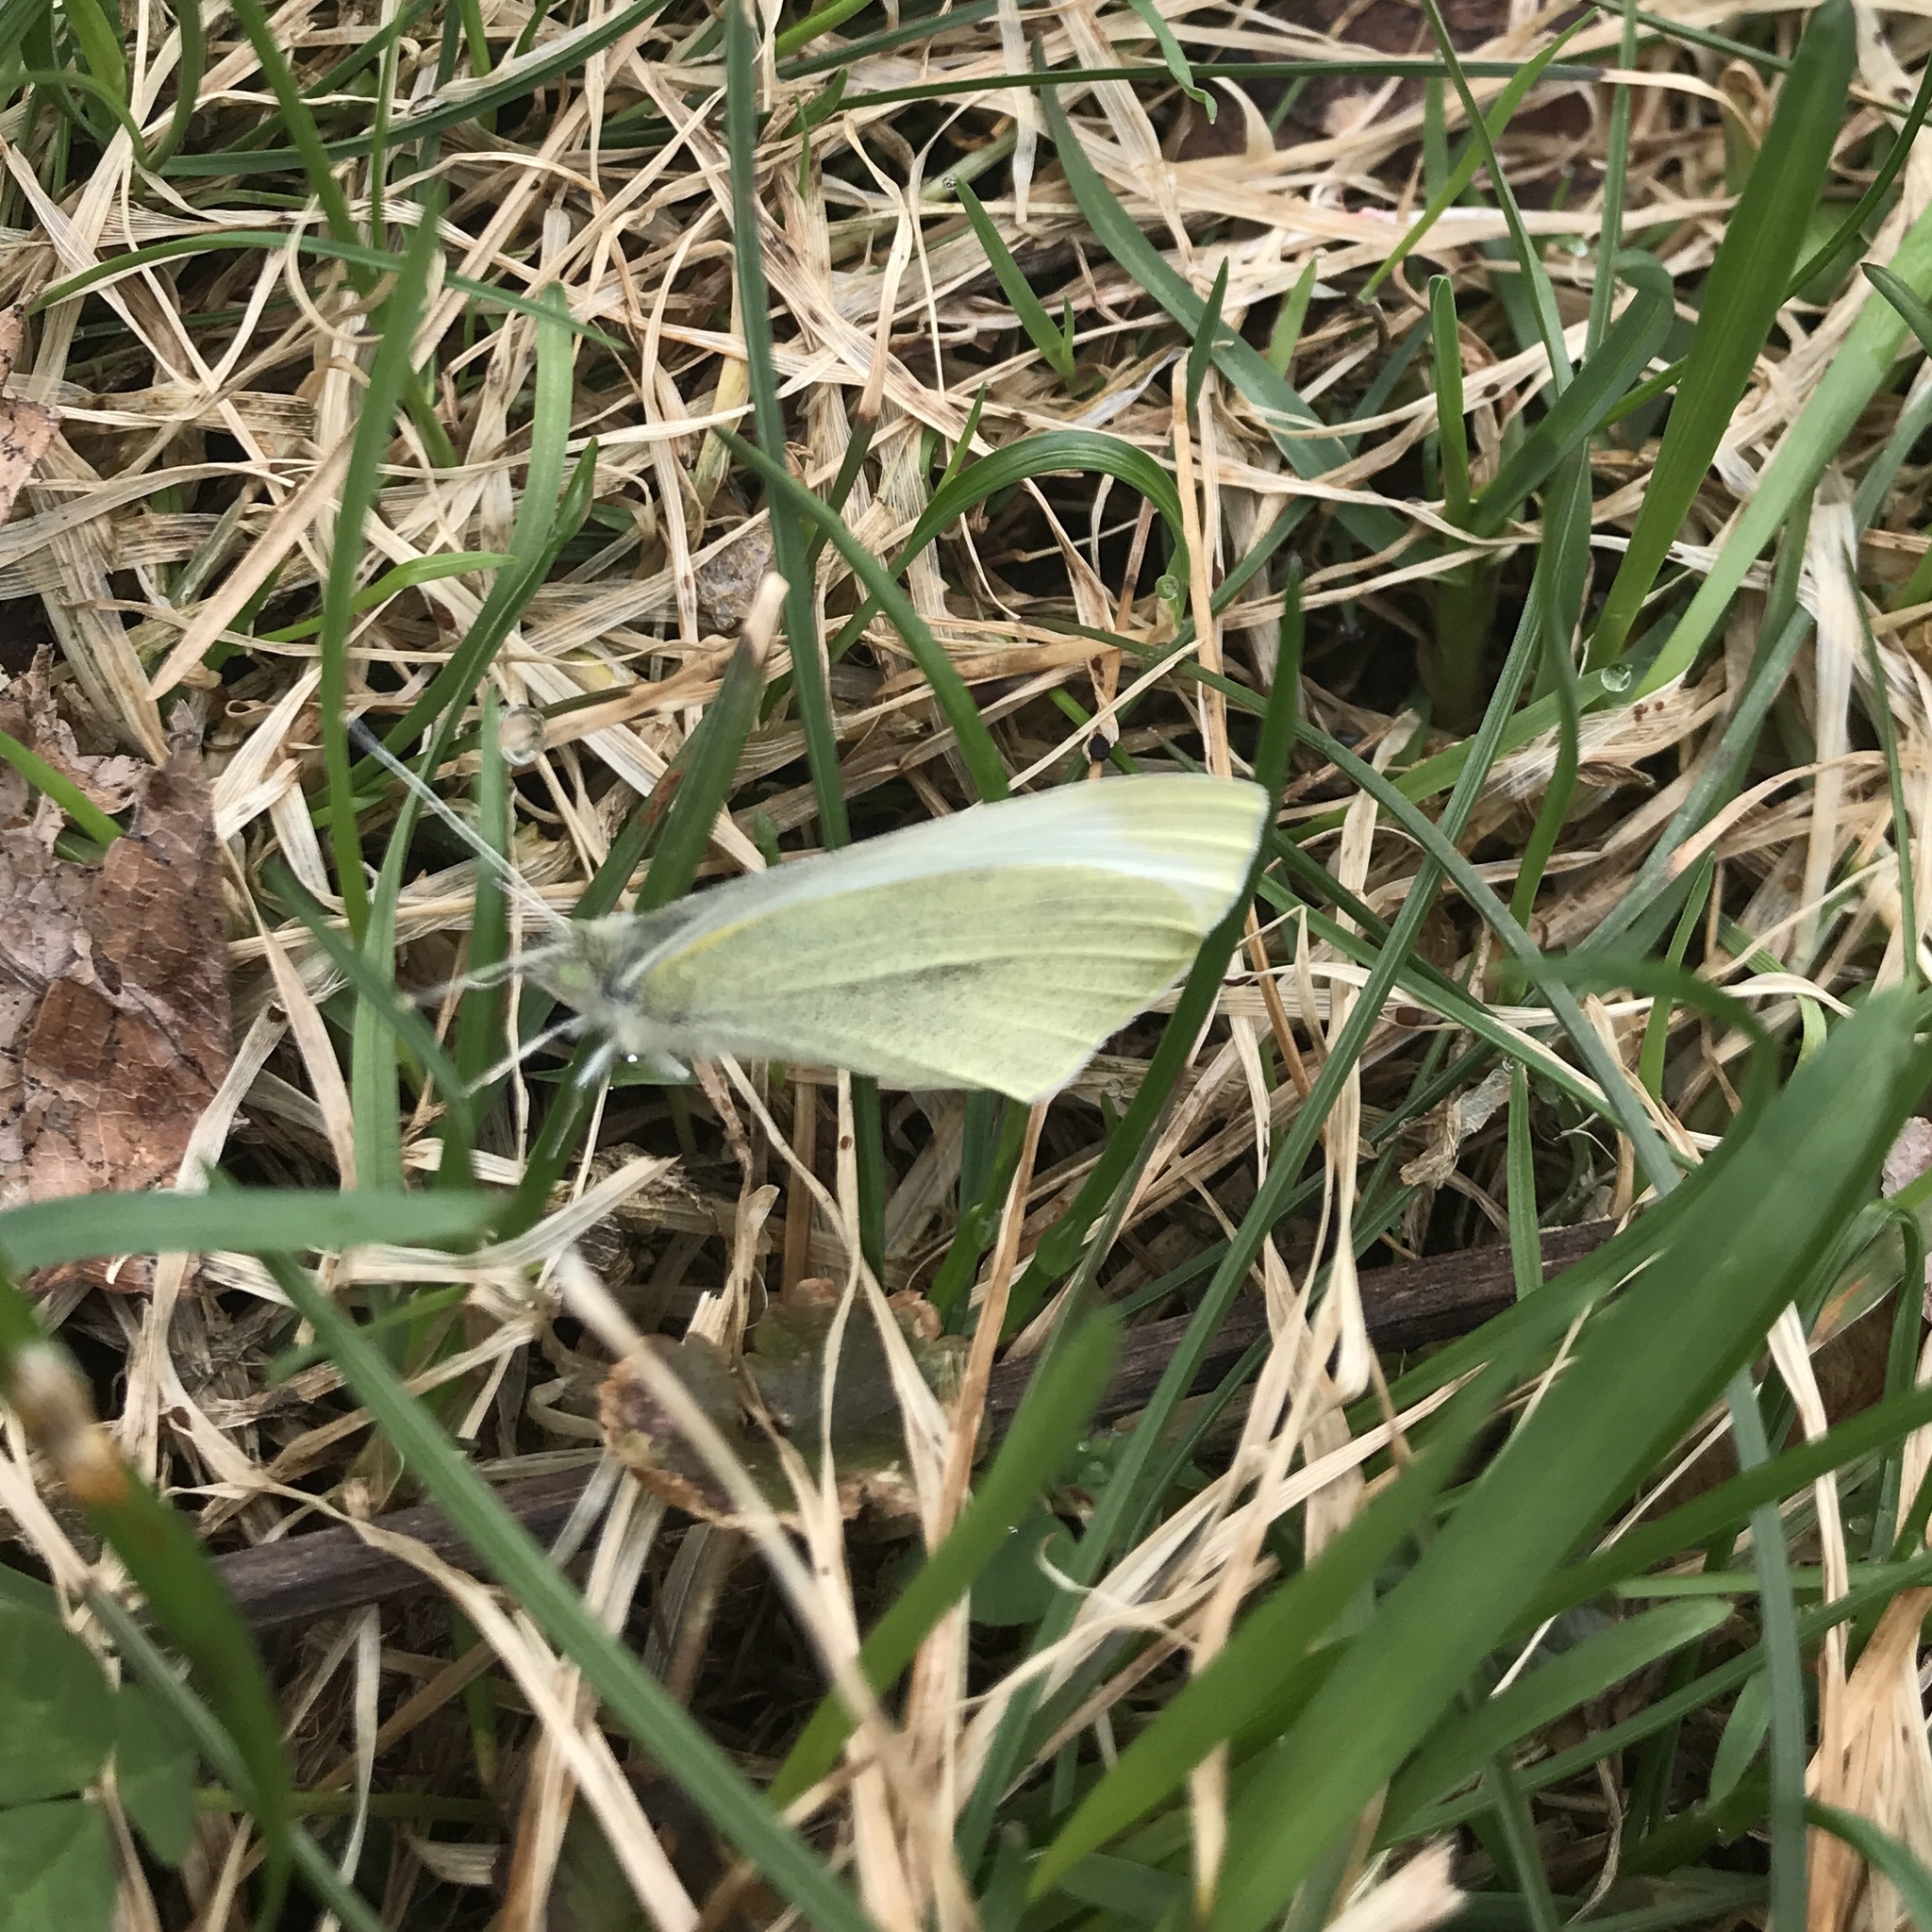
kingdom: Animalia
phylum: Arthropoda
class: Insecta
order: Lepidoptera
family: Pieridae
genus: Pieris
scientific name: Pieris rapae
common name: Small white
